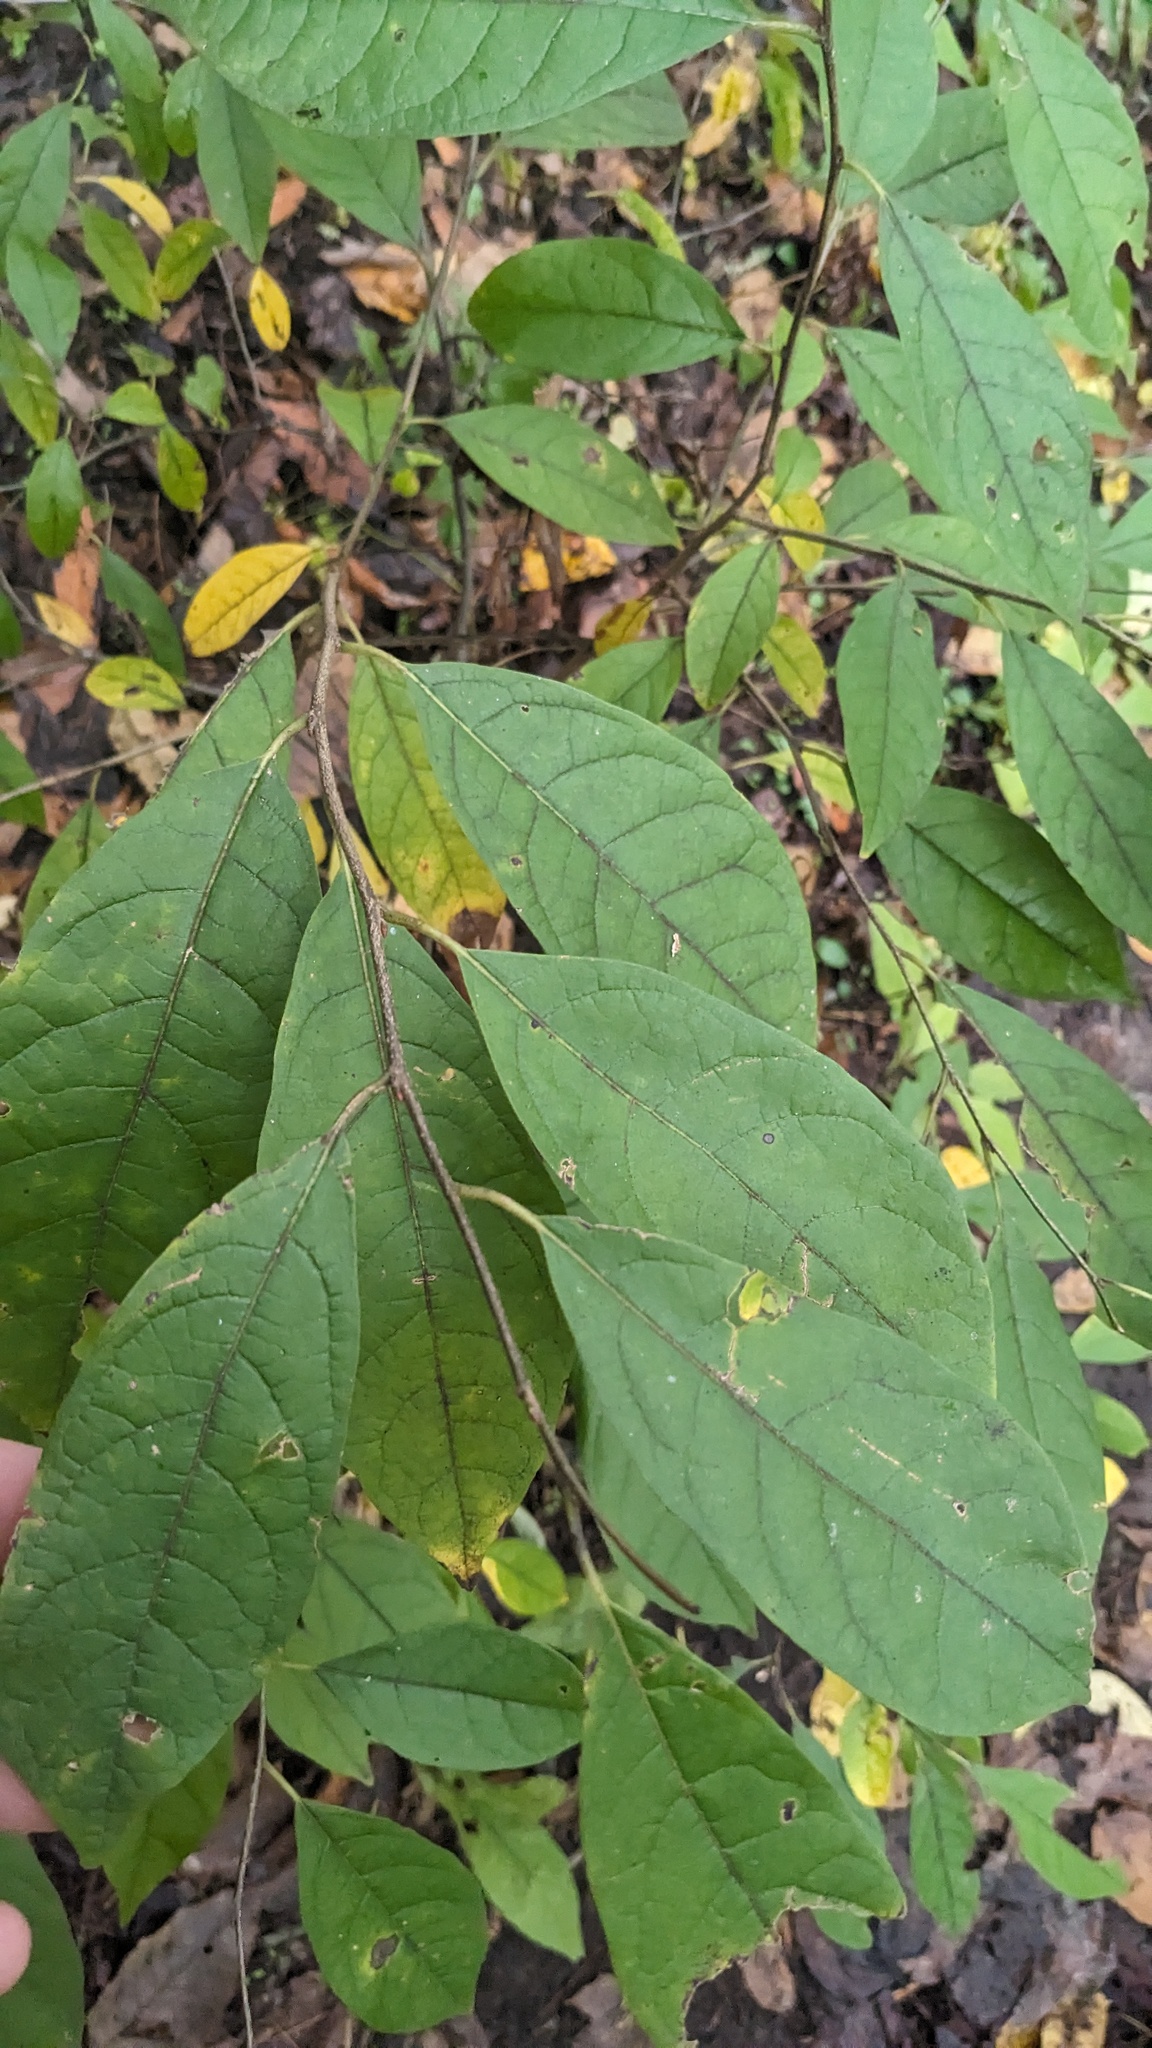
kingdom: Plantae
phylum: Tracheophyta
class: Magnoliopsida
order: Laurales
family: Lauraceae
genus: Lindera
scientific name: Lindera benzoin
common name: Spicebush
